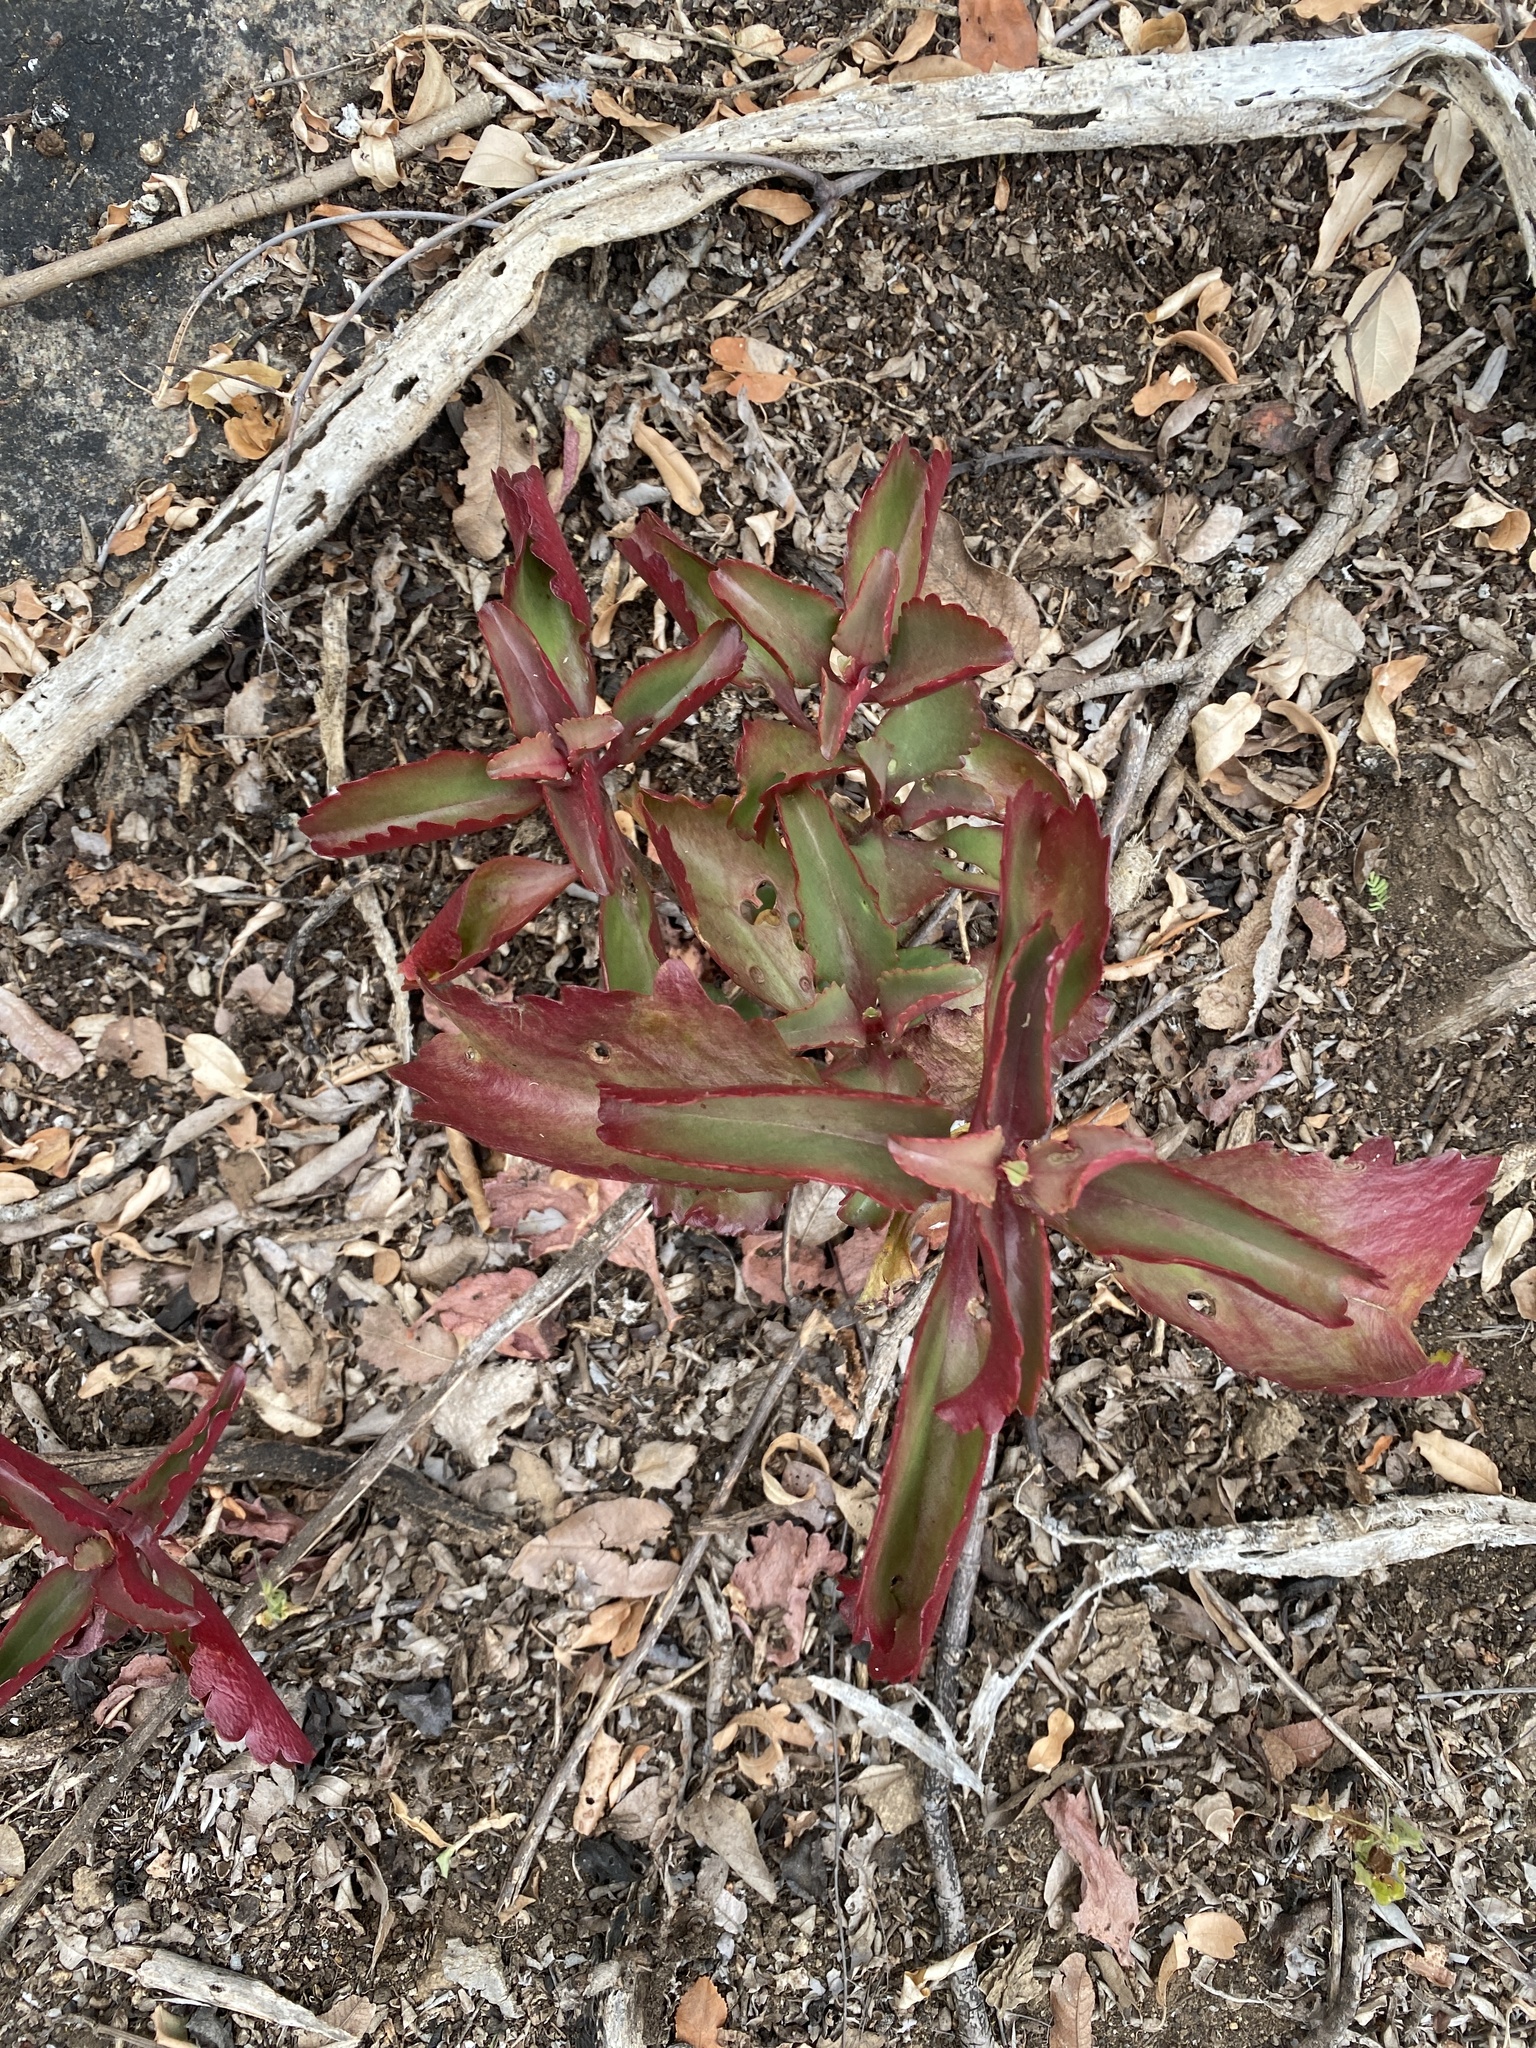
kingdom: Plantae
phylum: Tracheophyta
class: Magnoliopsida
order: Saxifragales
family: Crassulaceae
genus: Kalanchoe
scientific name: Kalanchoe sexangularis
